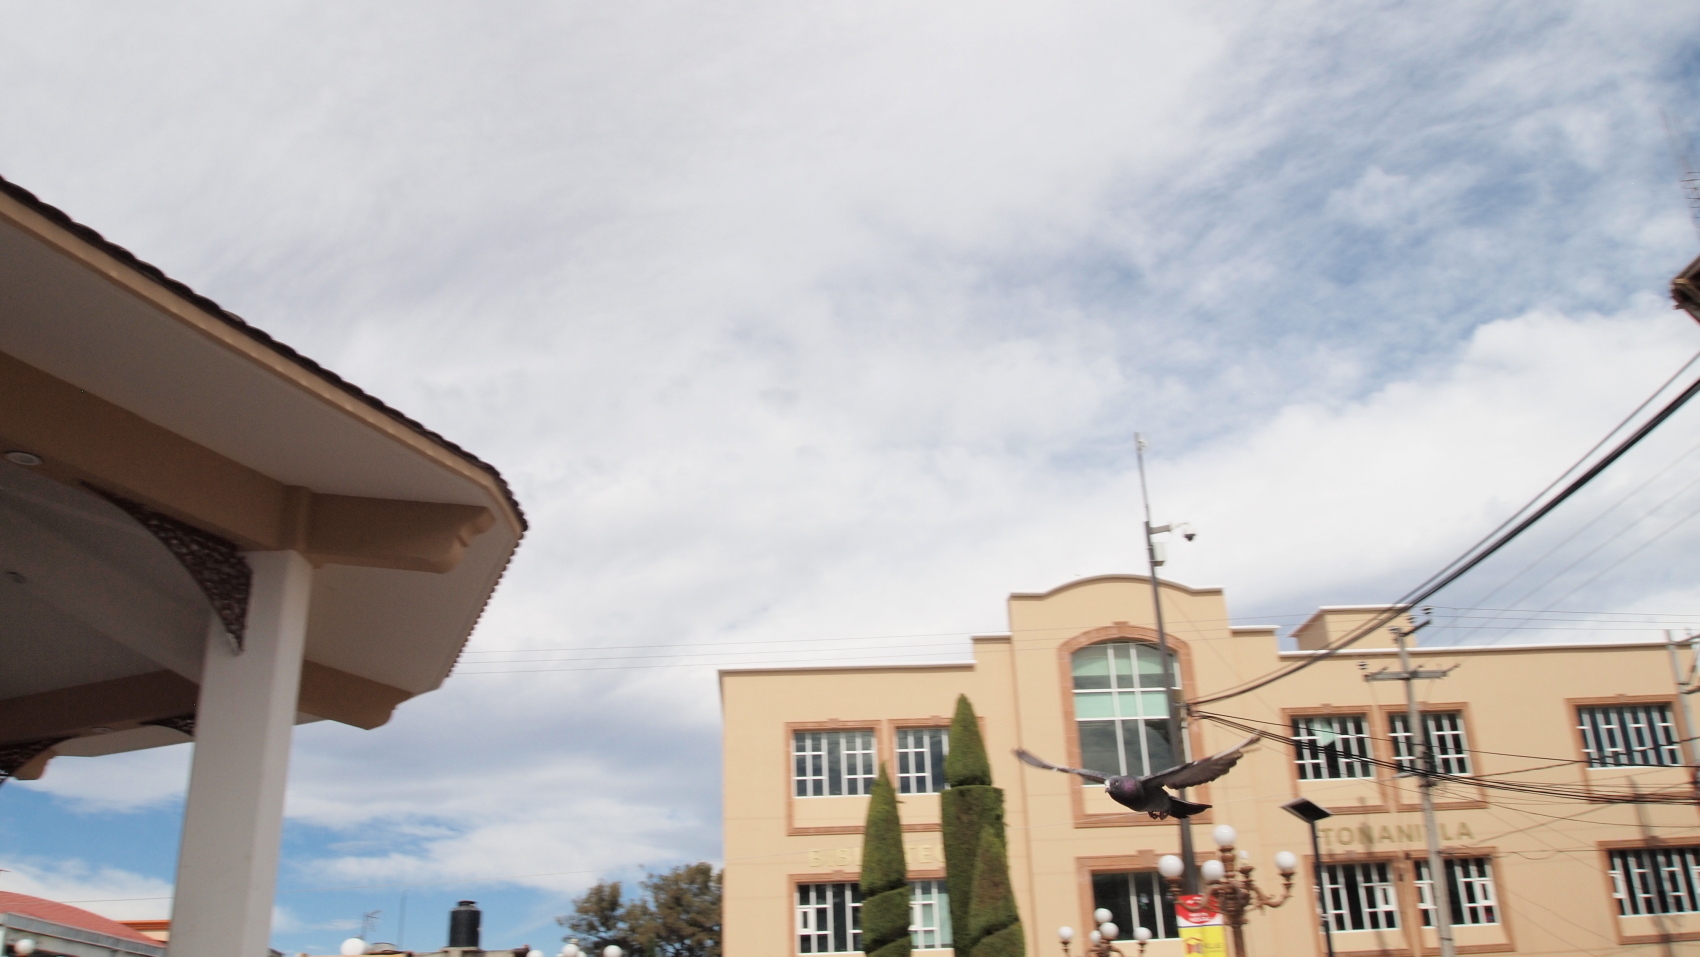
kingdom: Animalia
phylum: Chordata
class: Aves
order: Columbiformes
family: Columbidae
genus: Columba
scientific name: Columba livia
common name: Rock pigeon
